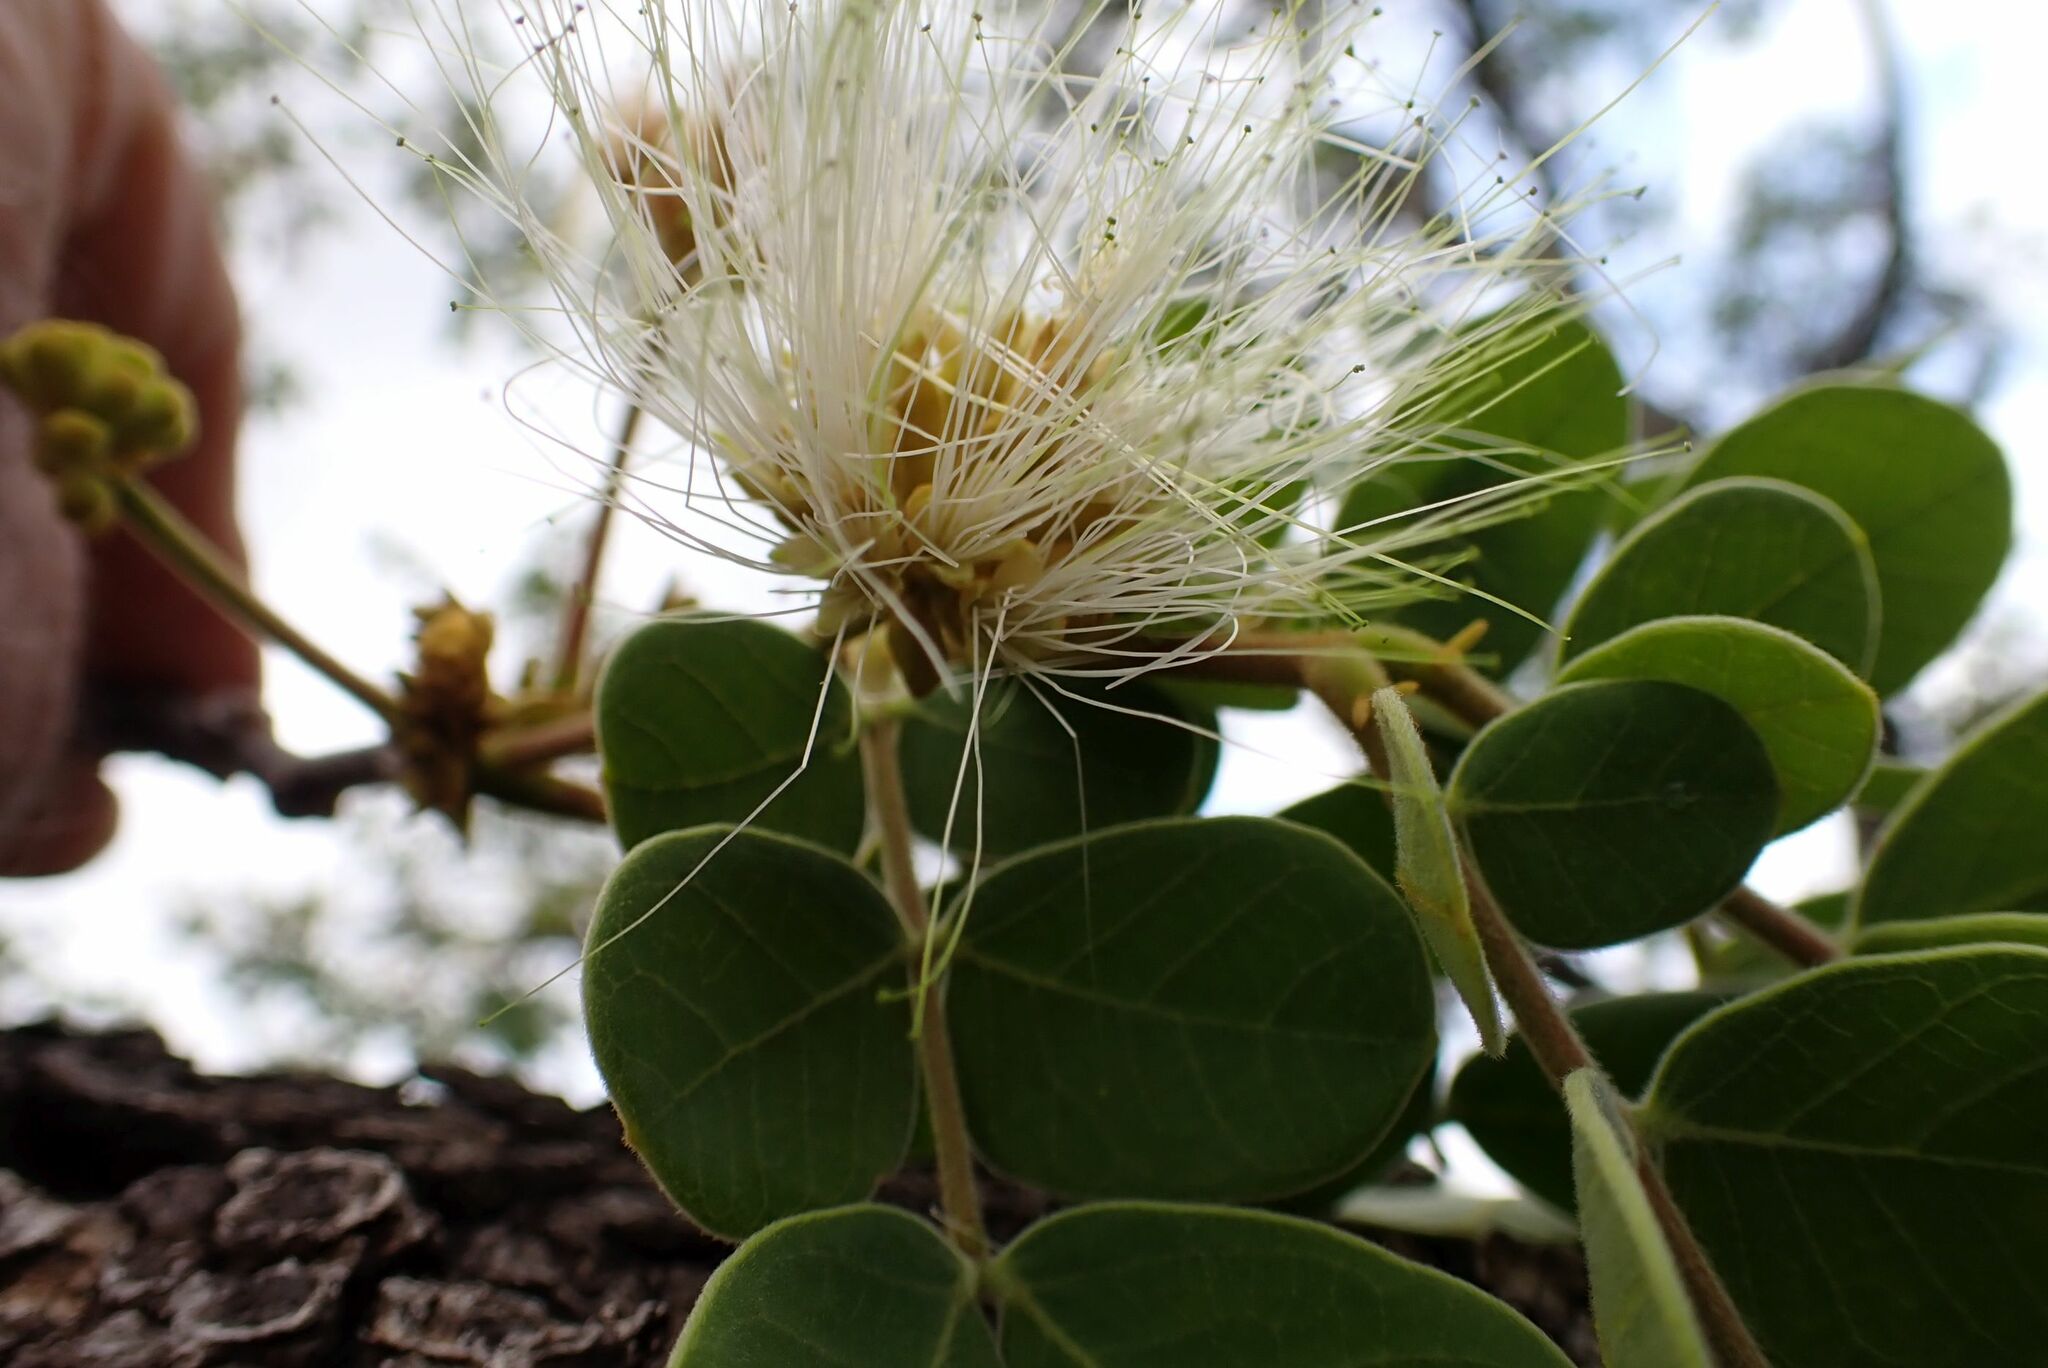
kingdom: Plantae
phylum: Tracheophyta
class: Magnoliopsida
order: Fabales
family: Fabaceae
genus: Albizia
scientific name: Albizia versicolor
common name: Poisonpod
